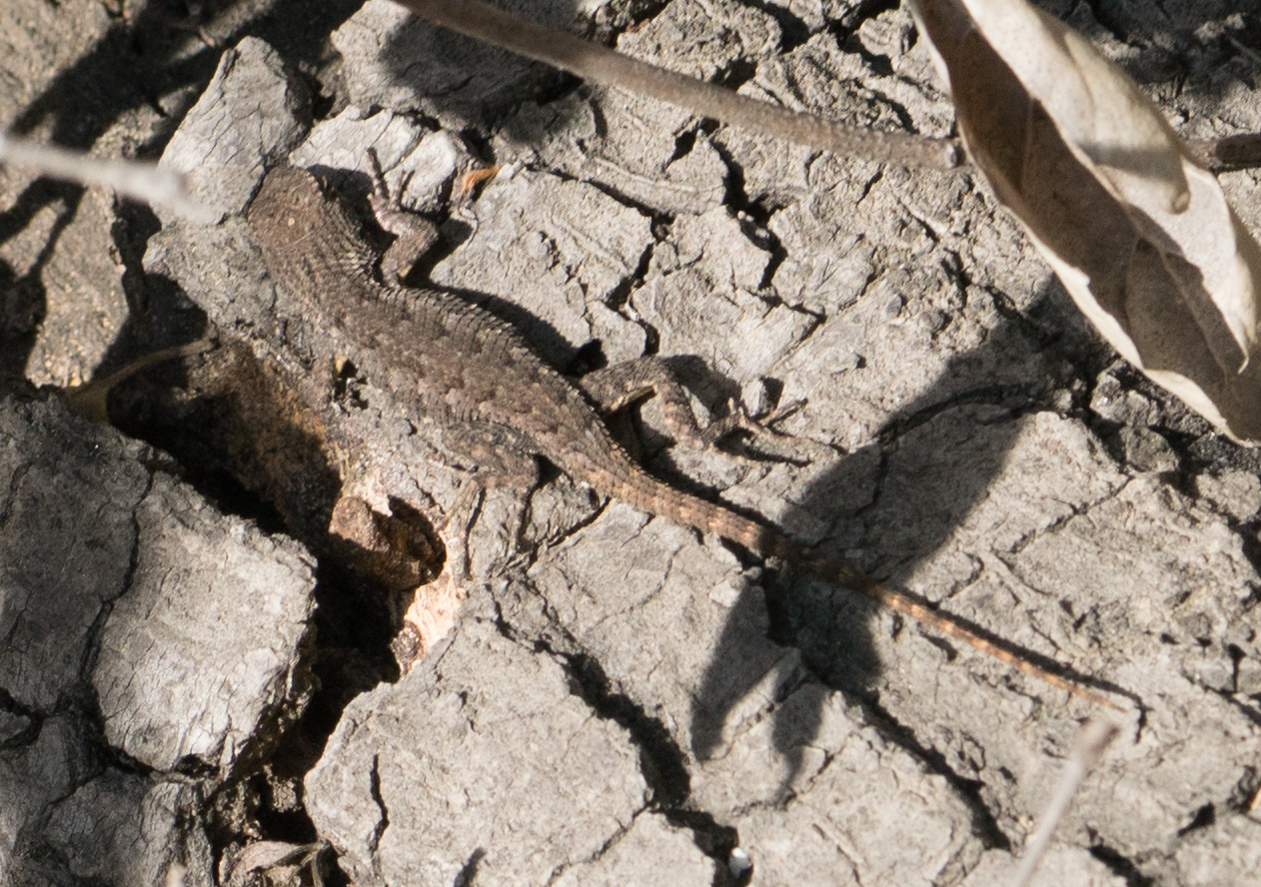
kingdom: Animalia
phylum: Chordata
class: Squamata
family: Phrynosomatidae
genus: Sceloporus
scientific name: Sceloporus occidentalis
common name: Western fence lizard
